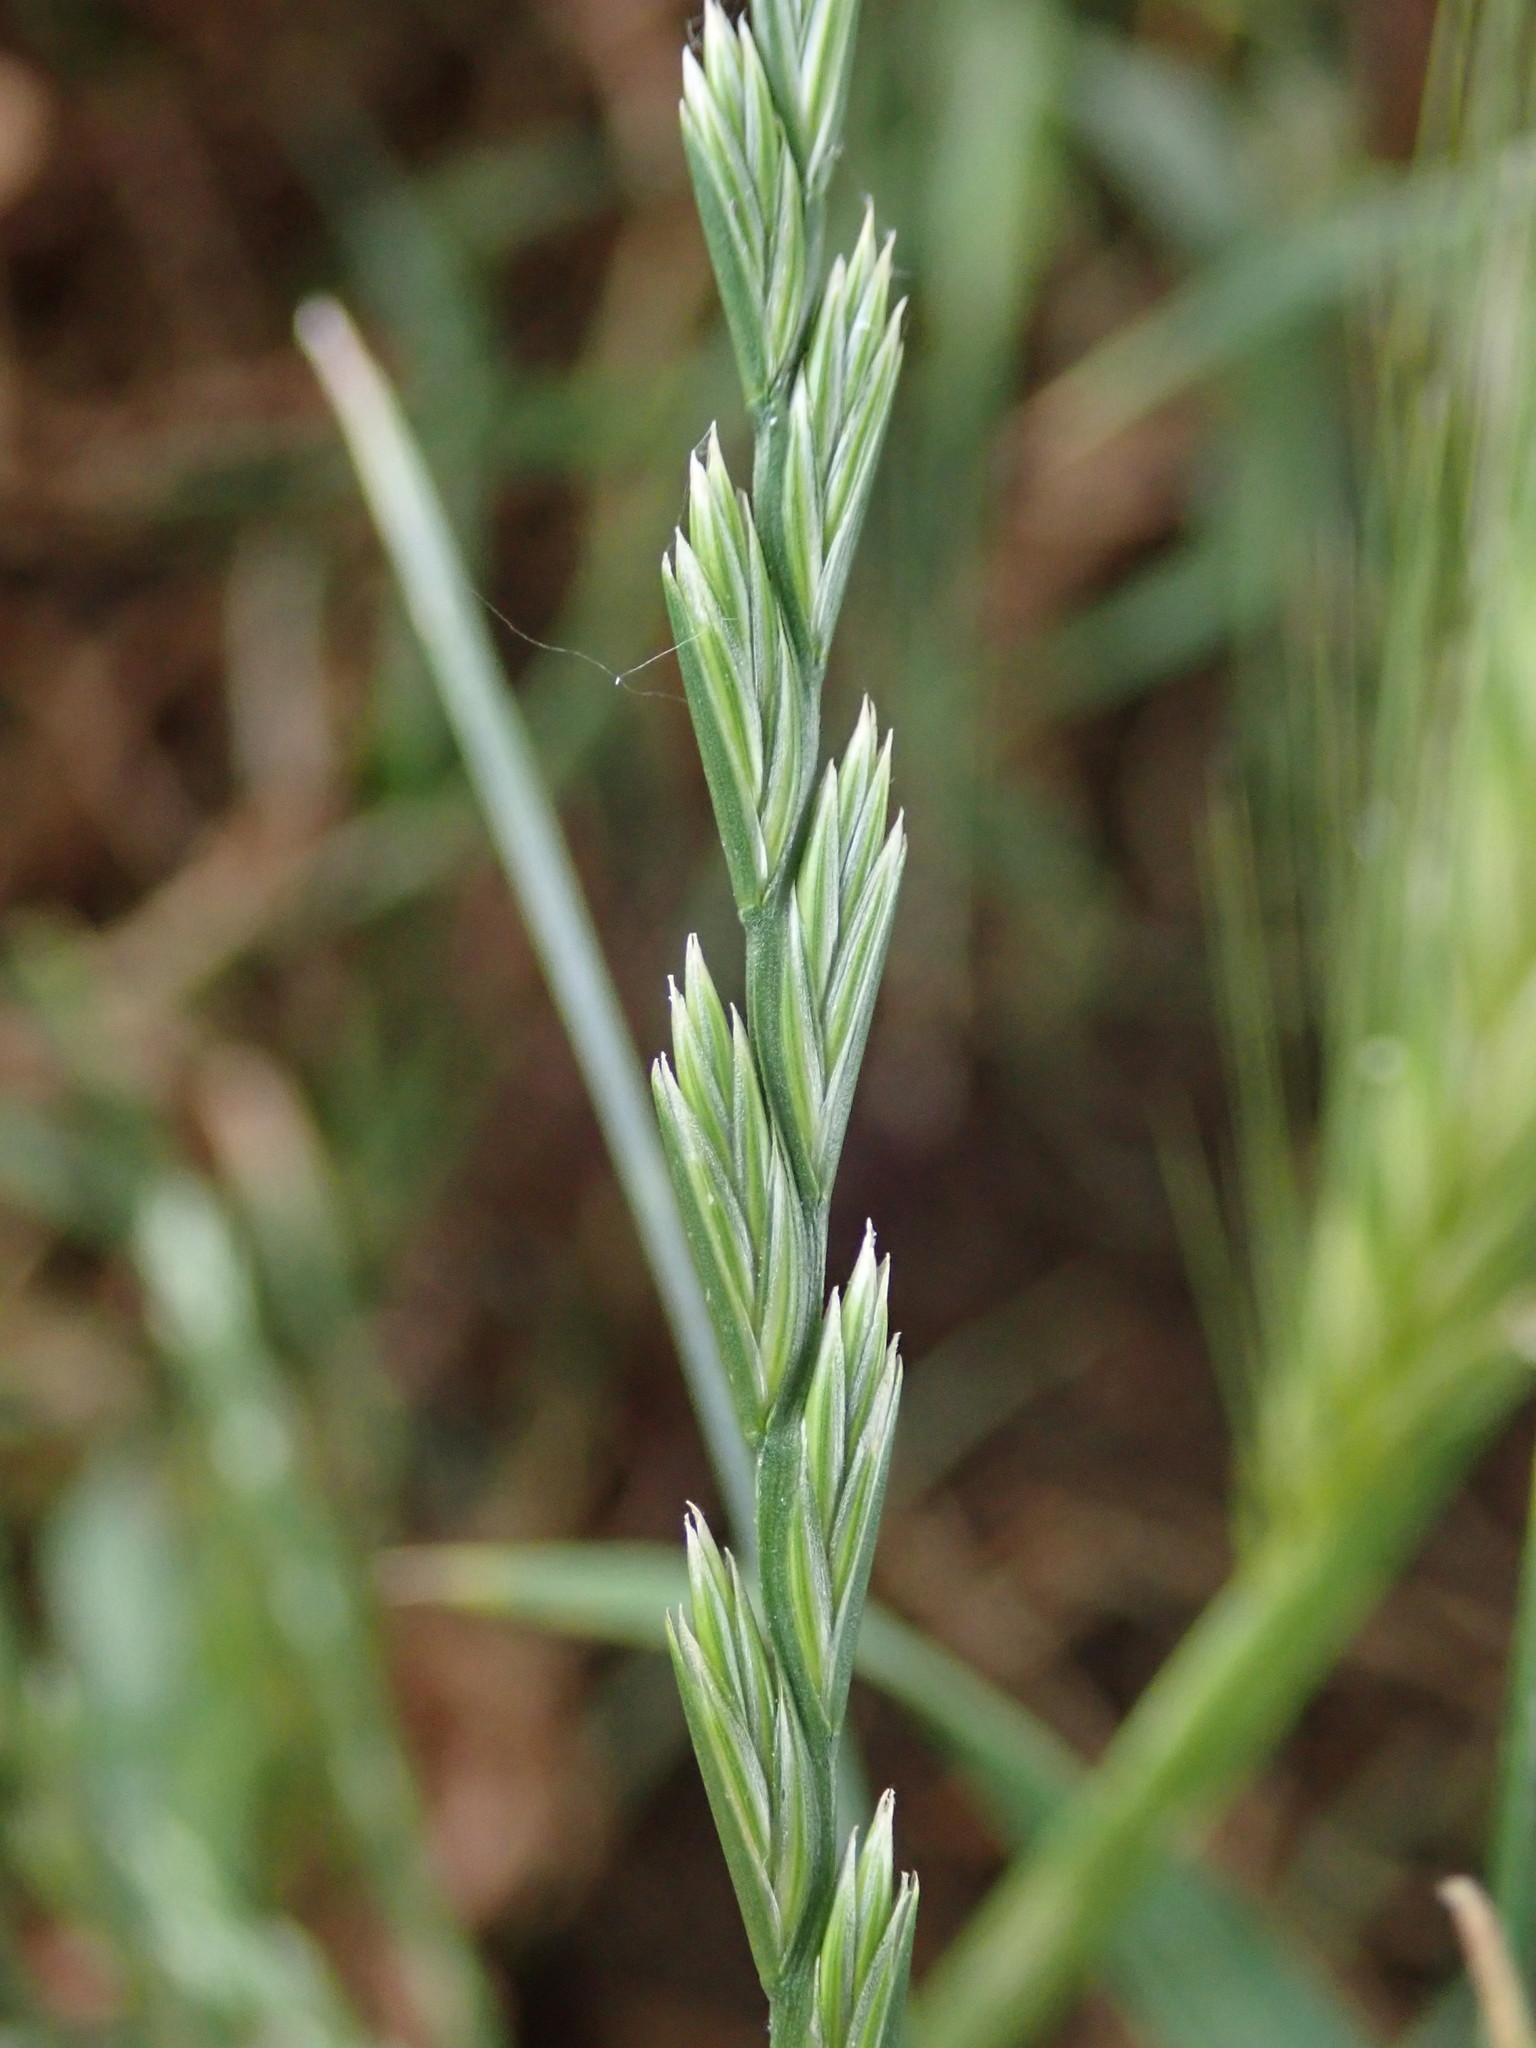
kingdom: Plantae
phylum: Tracheophyta
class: Liliopsida
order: Poales
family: Poaceae
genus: Lolium
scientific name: Lolium perenne
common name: Perennial ryegrass
